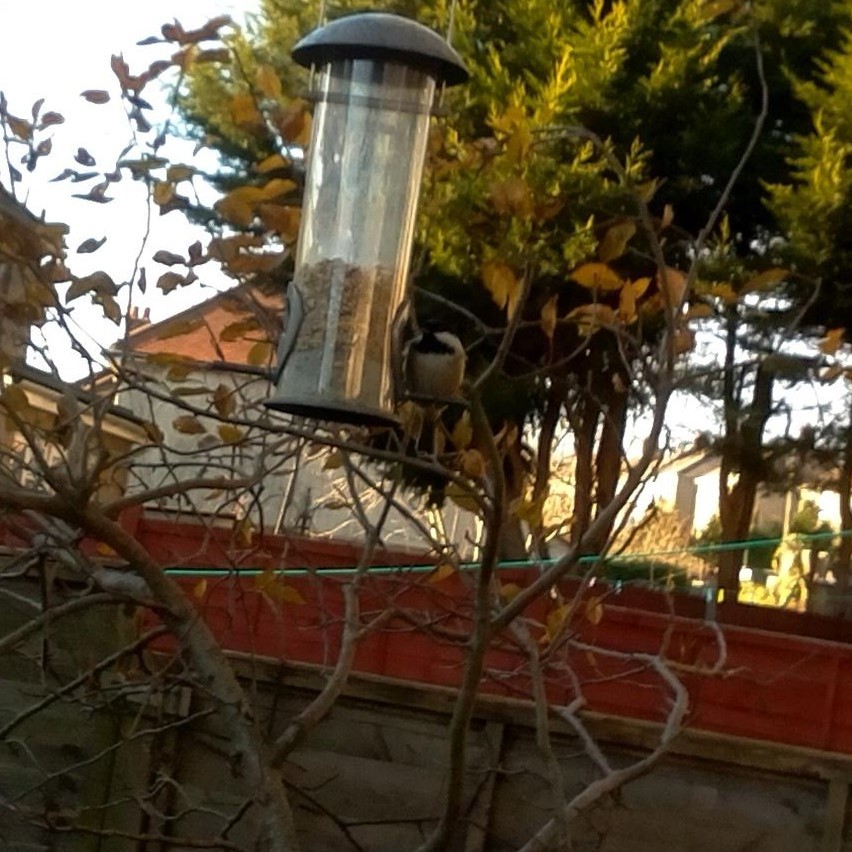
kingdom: Animalia
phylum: Chordata
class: Aves
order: Passeriformes
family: Paridae
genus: Periparus
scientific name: Periparus ater
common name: Coal tit
